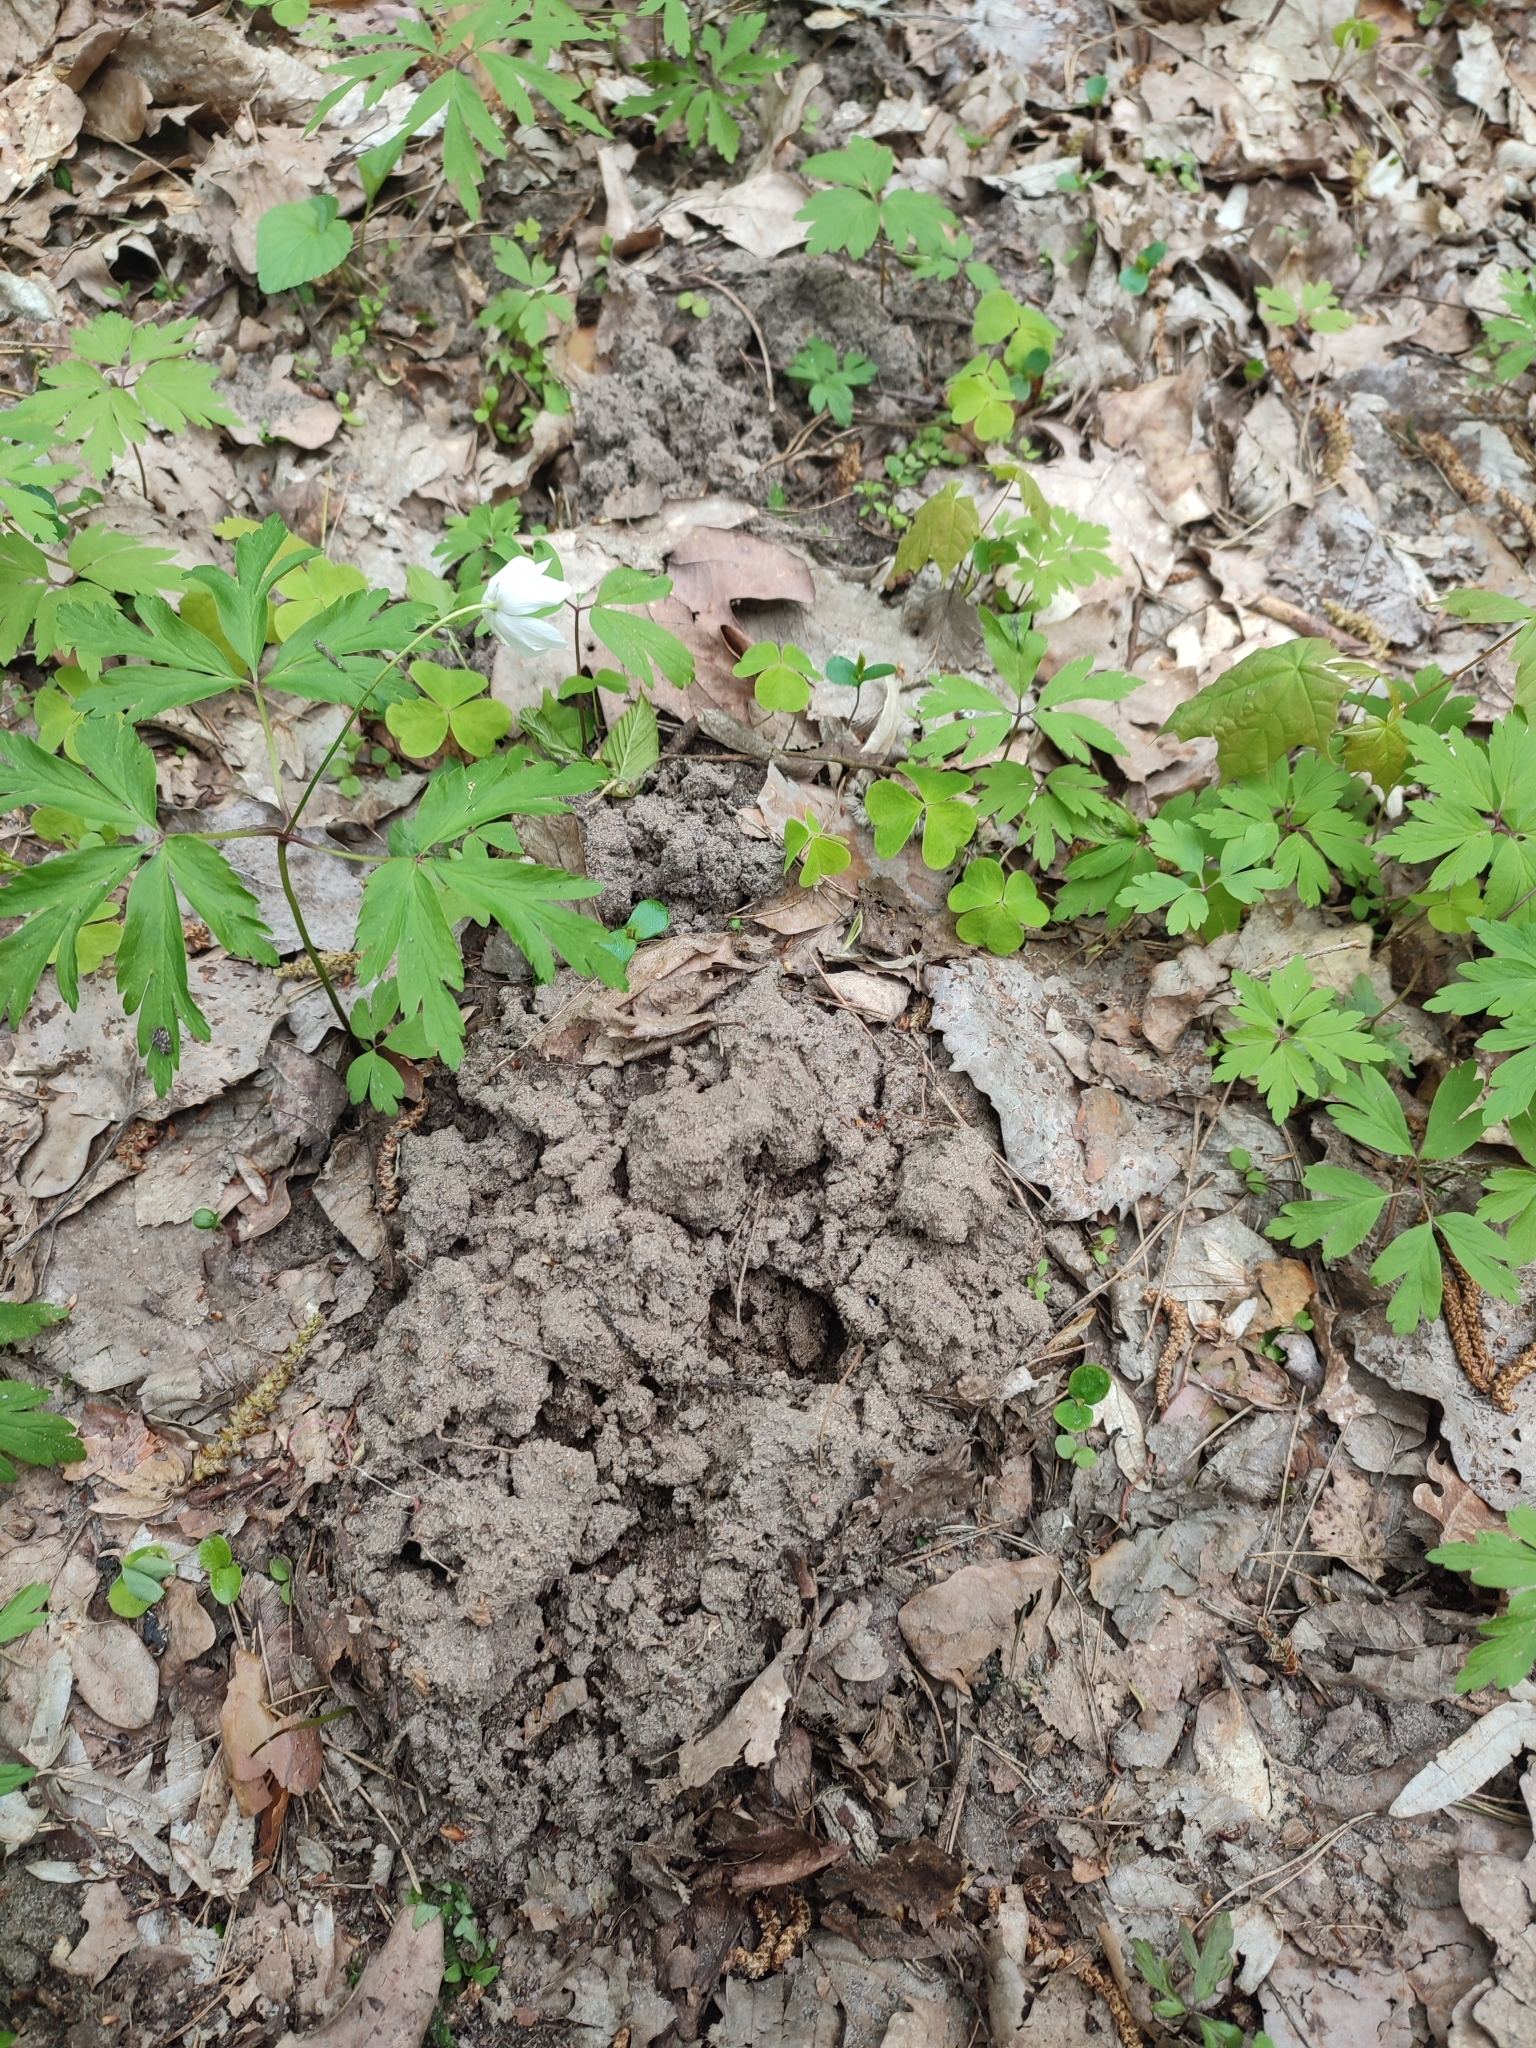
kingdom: Animalia
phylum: Chordata
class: Mammalia
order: Soricomorpha
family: Talpidae
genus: Talpa
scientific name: Talpa europaea
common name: European mole
